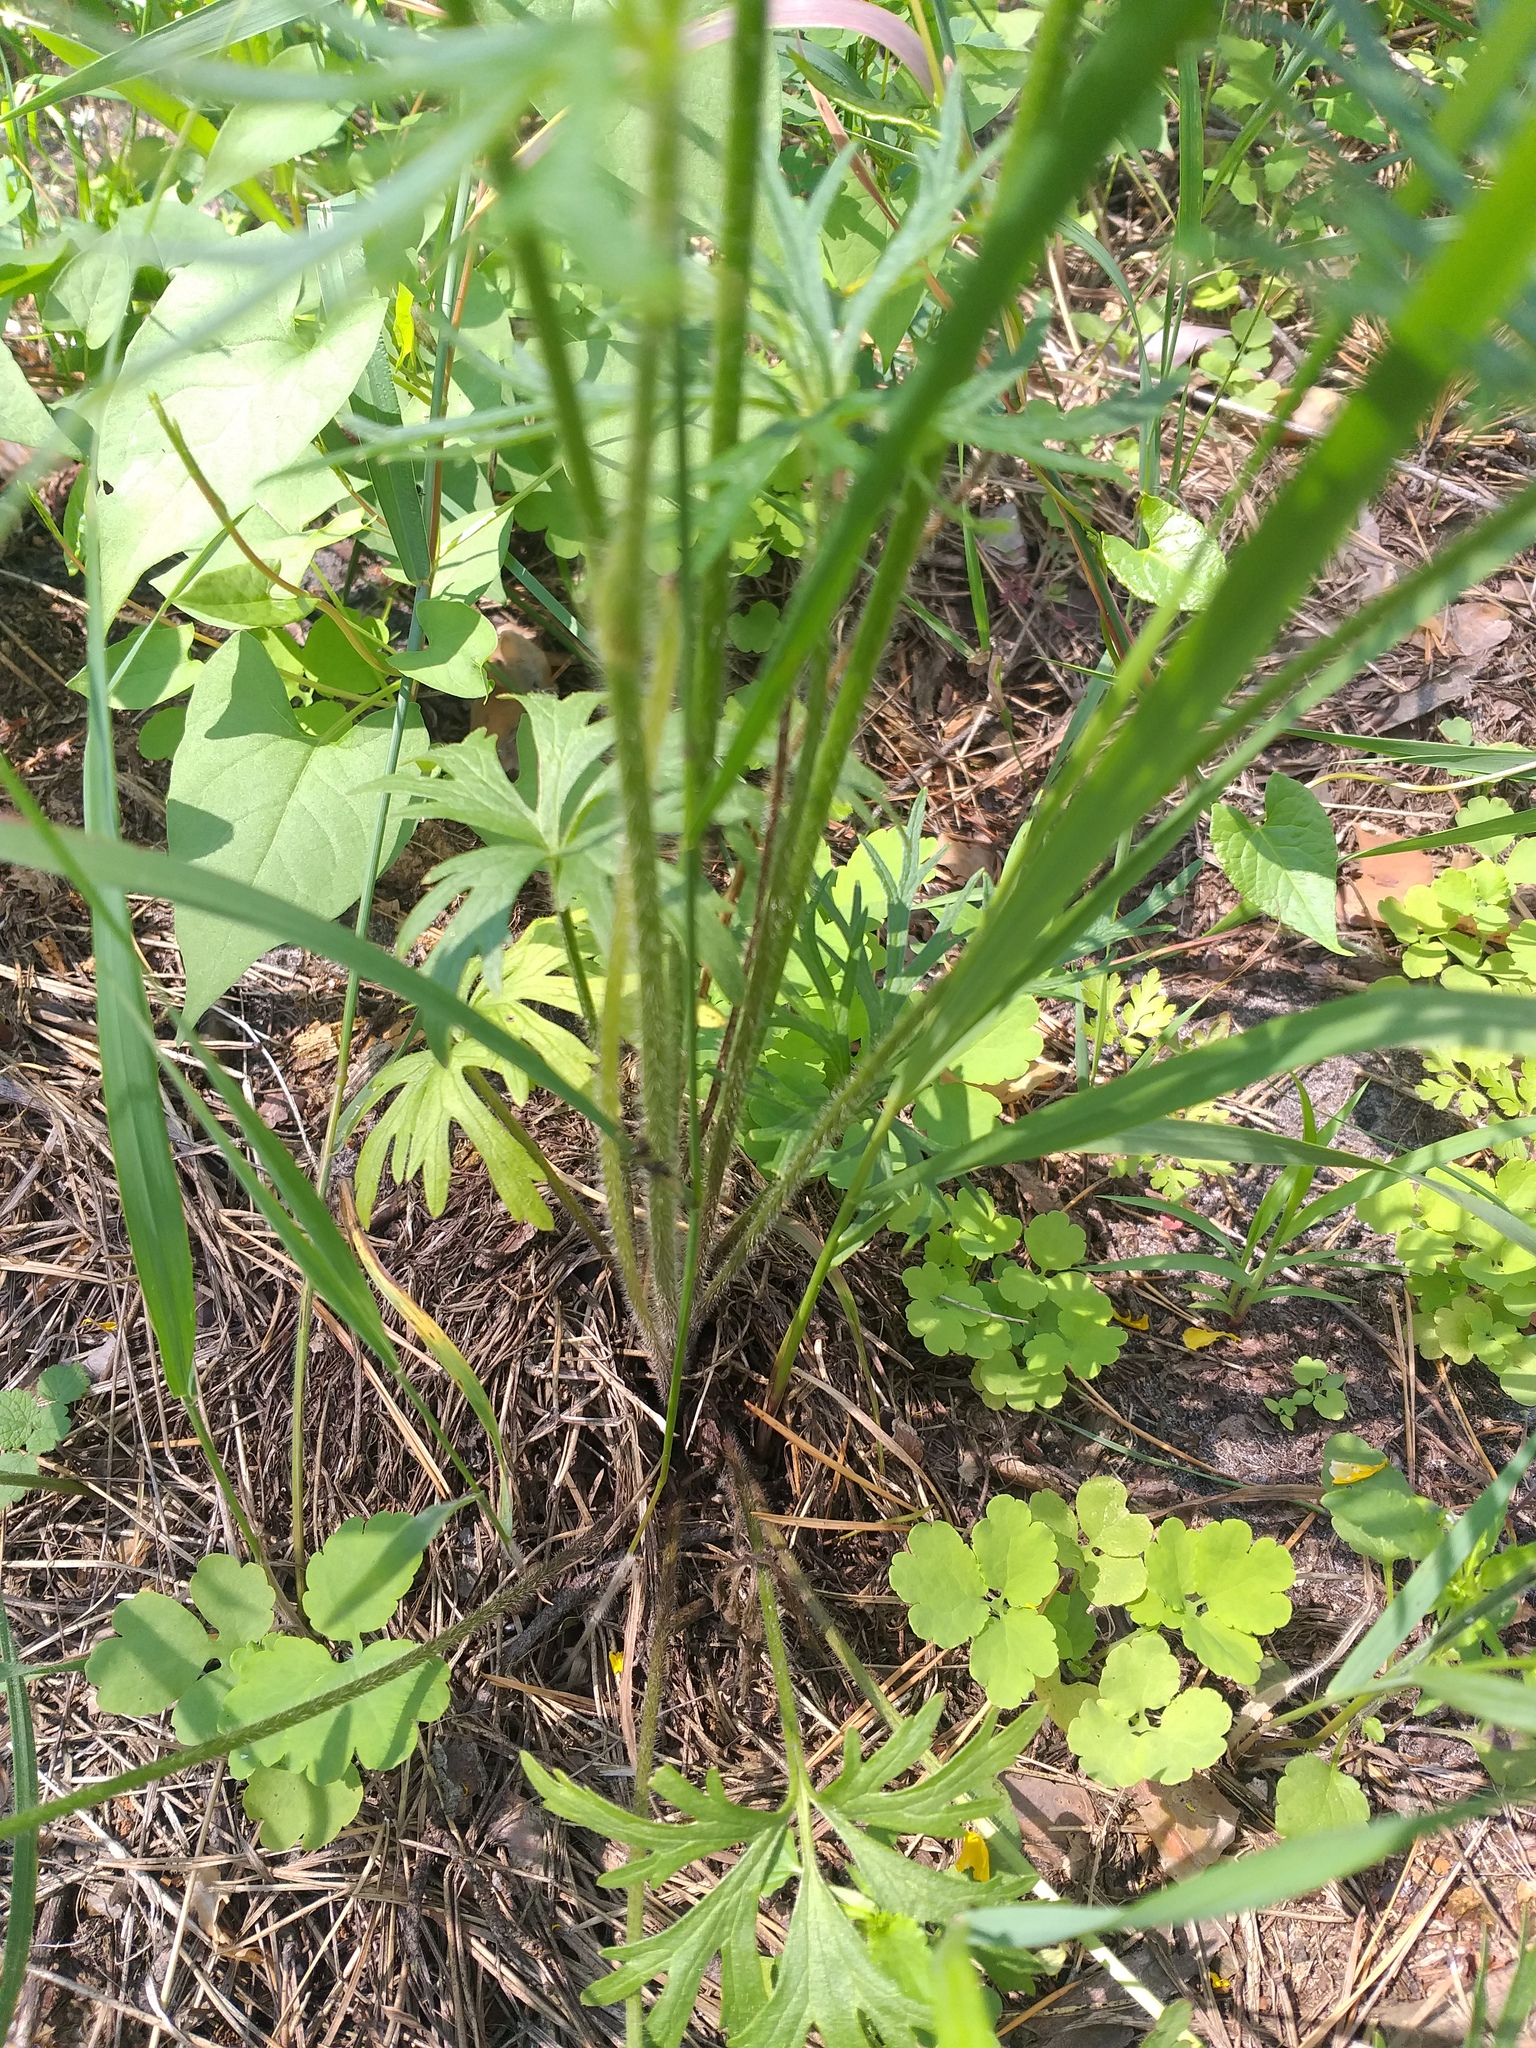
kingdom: Plantae
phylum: Tracheophyta
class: Magnoliopsida
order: Ranunculales
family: Ranunculaceae
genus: Ranunculus
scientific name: Ranunculus polyanthemos
